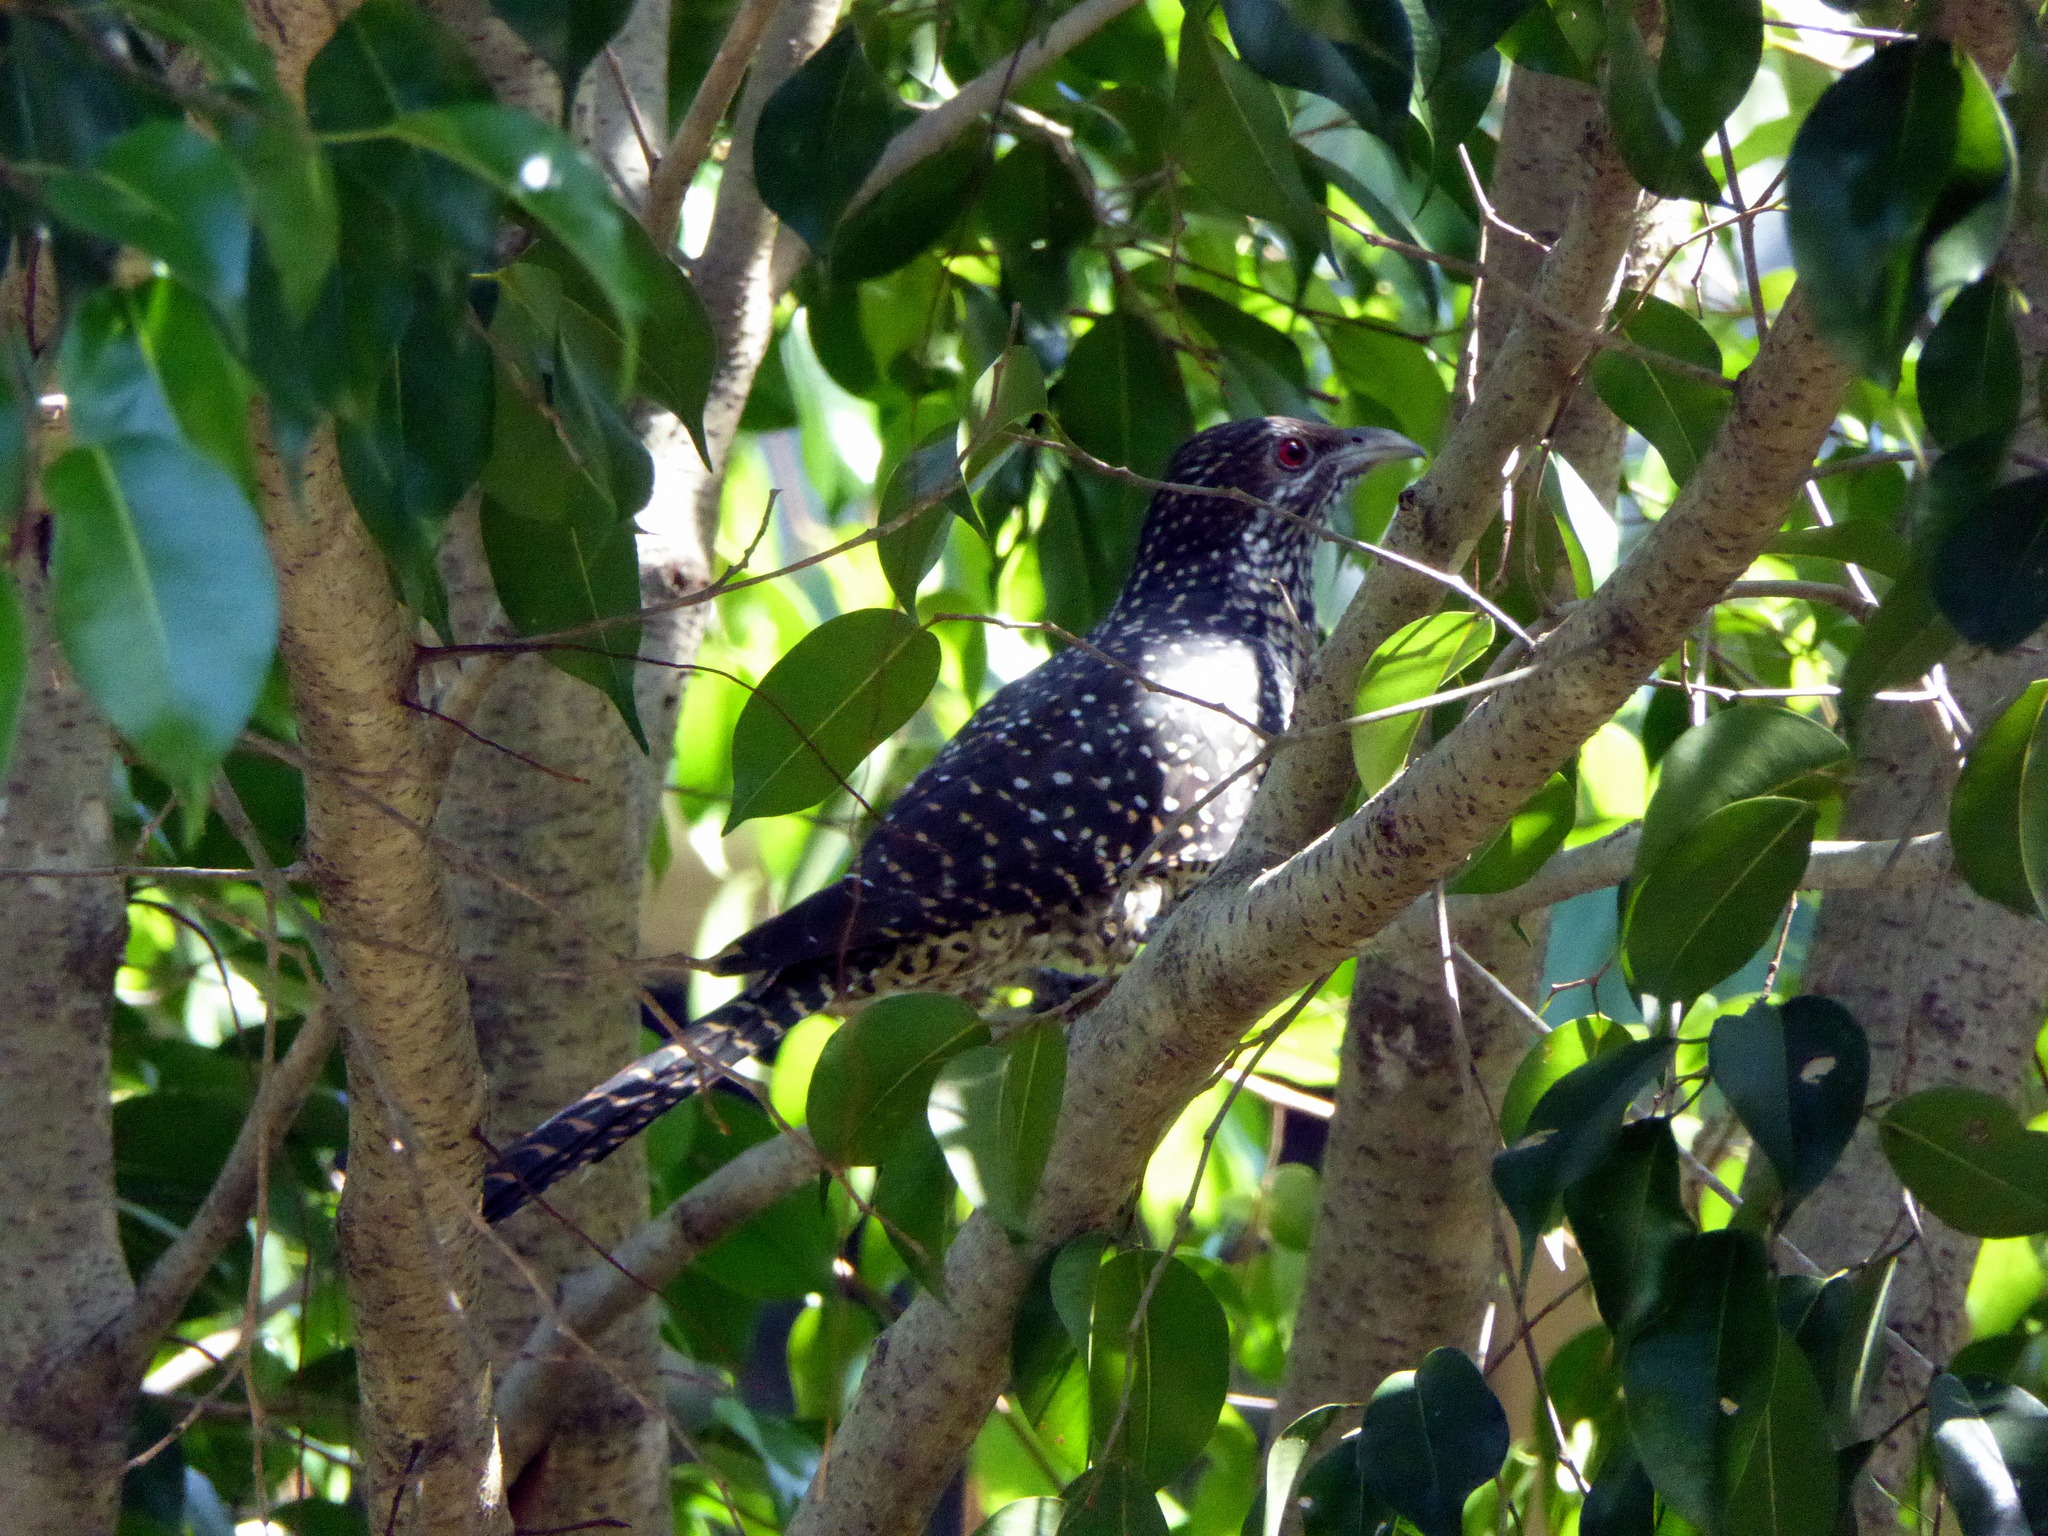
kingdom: Animalia
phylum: Chordata
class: Aves
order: Cuculiformes
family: Cuculidae
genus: Eudynamys
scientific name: Eudynamys scolopaceus
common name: Asian koel
